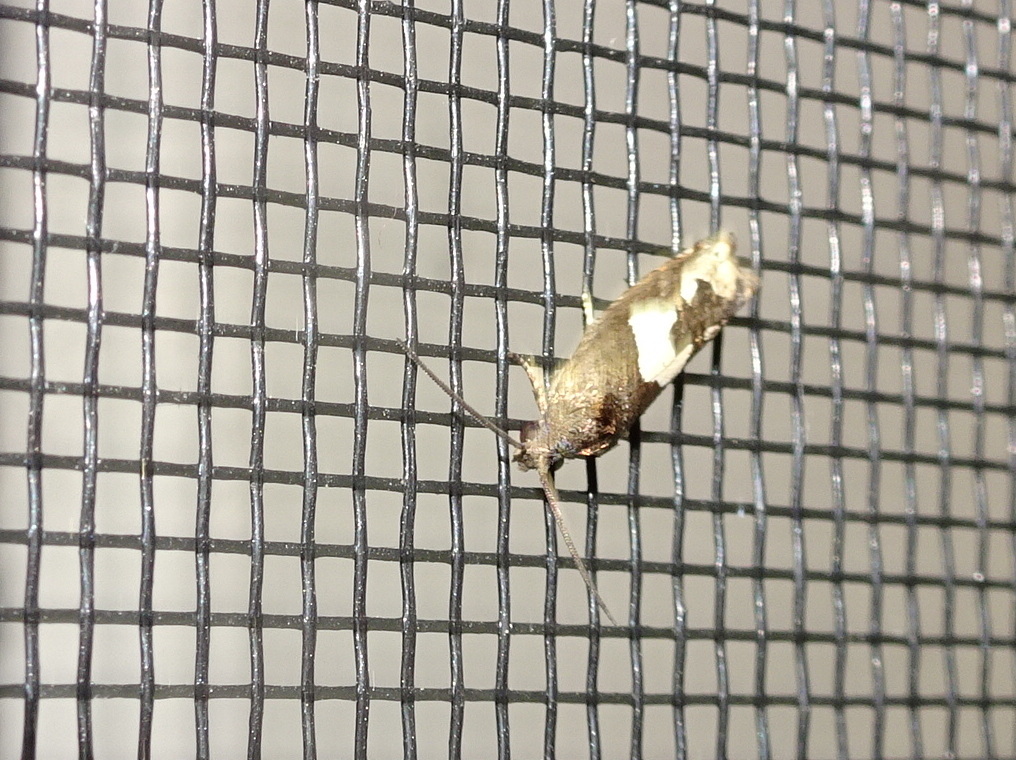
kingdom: Animalia
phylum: Arthropoda
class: Insecta
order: Lepidoptera
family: Tortricidae
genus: Epiblema
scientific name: Epiblema otiosana
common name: Bidens borer moth
